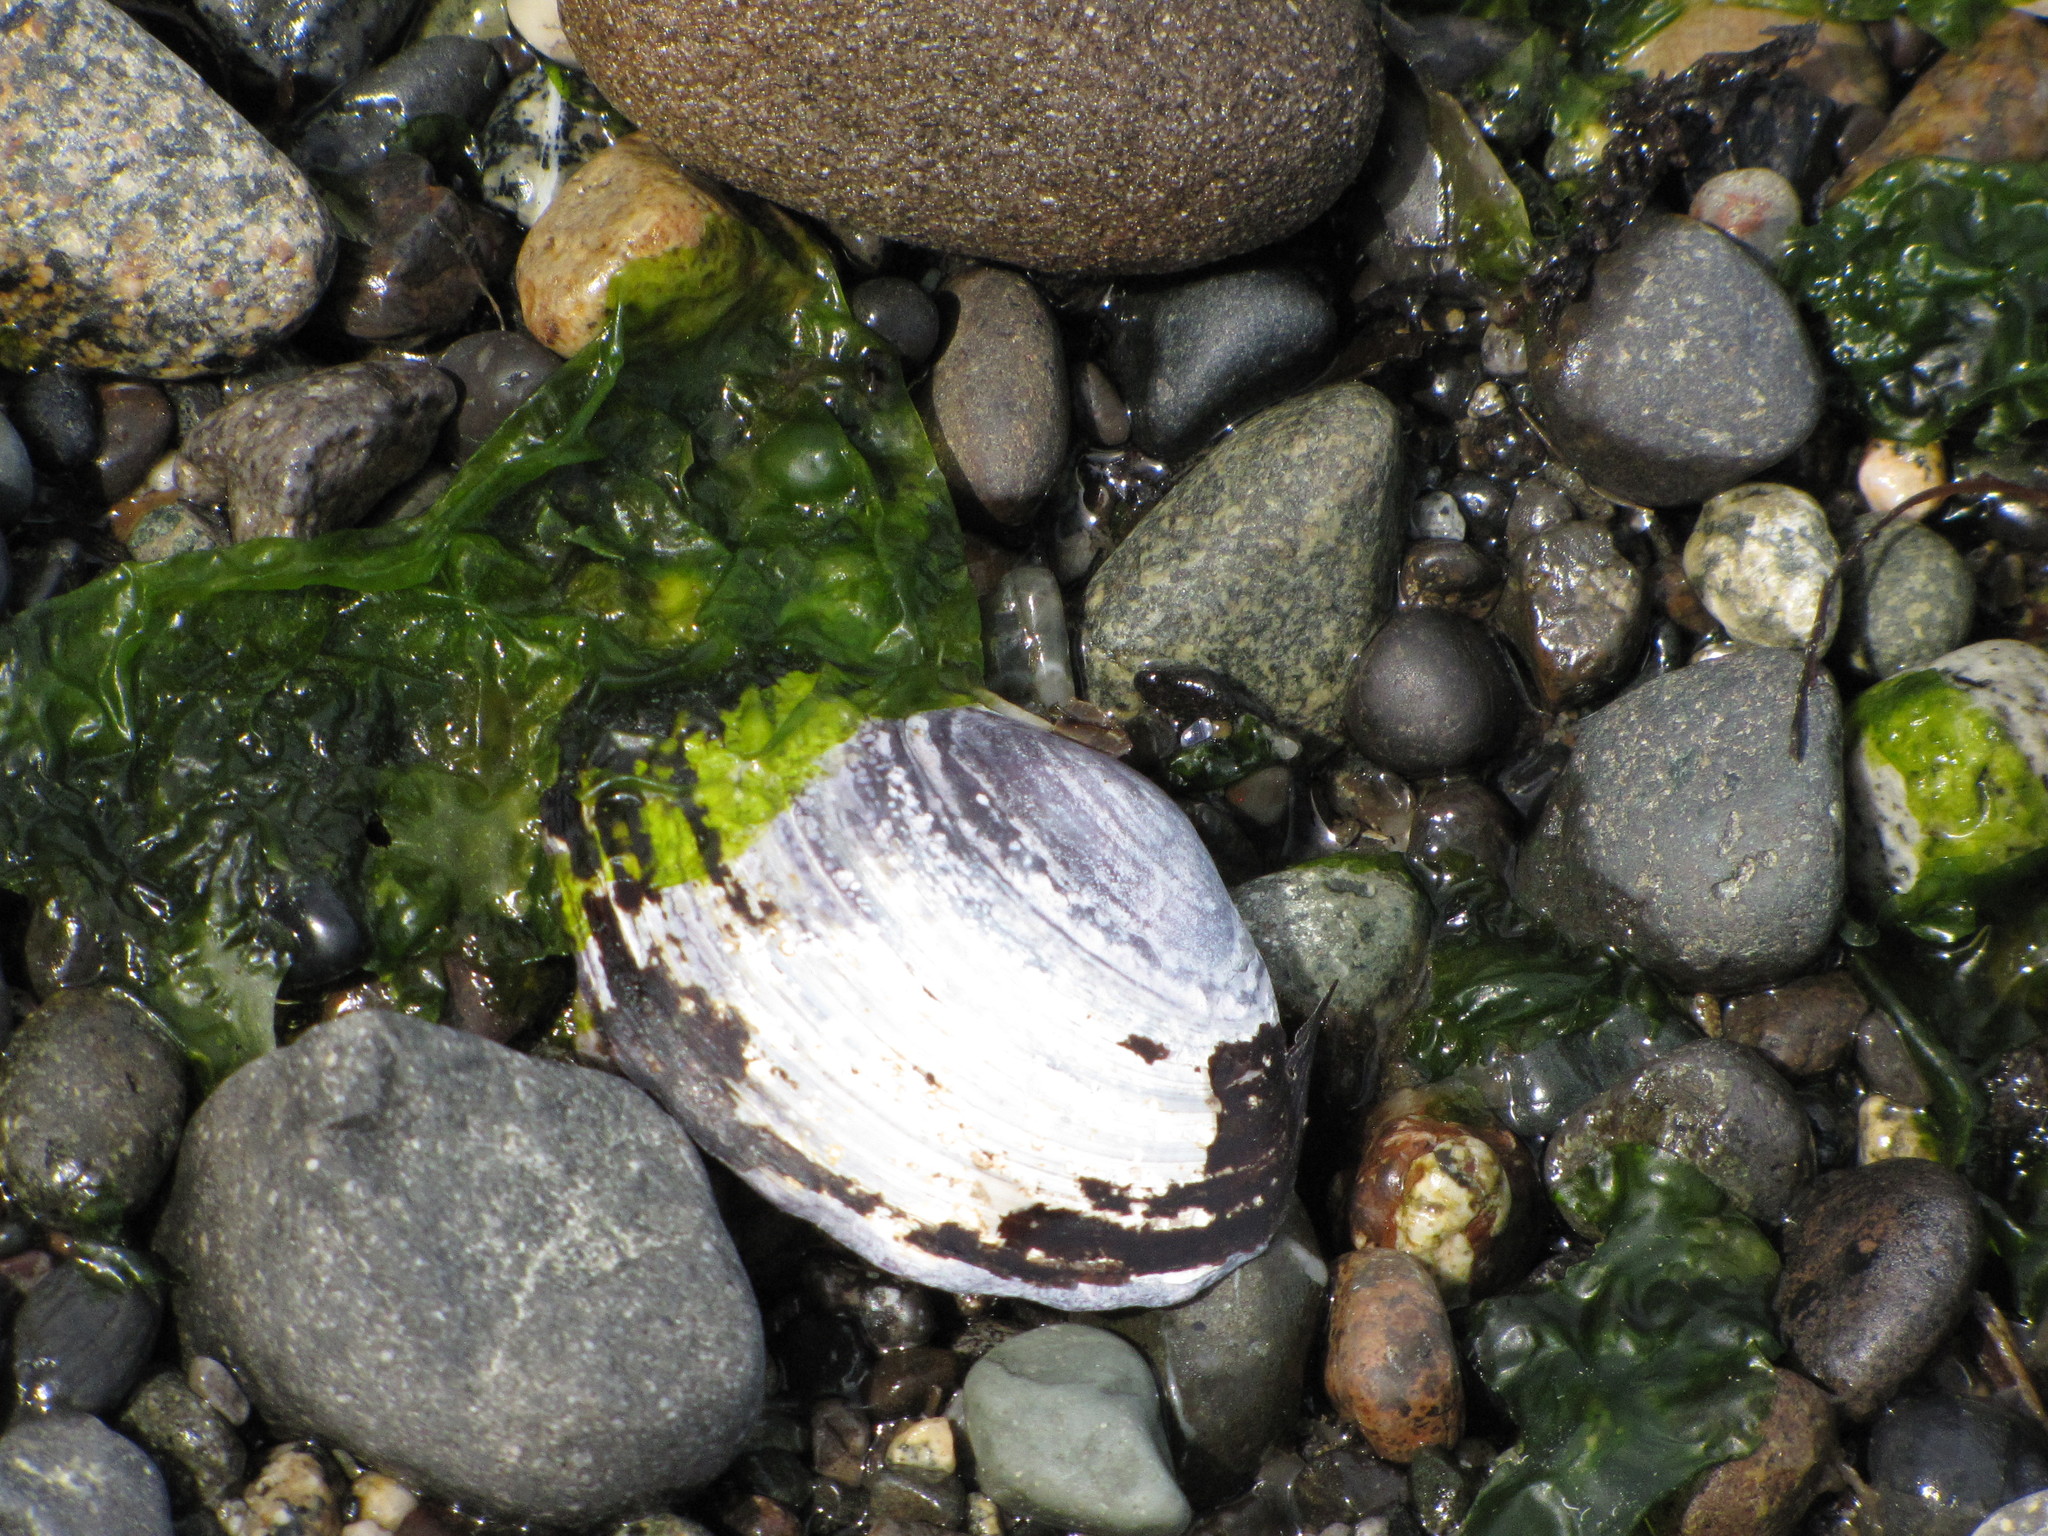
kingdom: Animalia
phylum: Mollusca
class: Bivalvia
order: Cardiida
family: Psammobiidae
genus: Nuttallia
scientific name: Nuttallia obscurata
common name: Purple mahogany-clam
